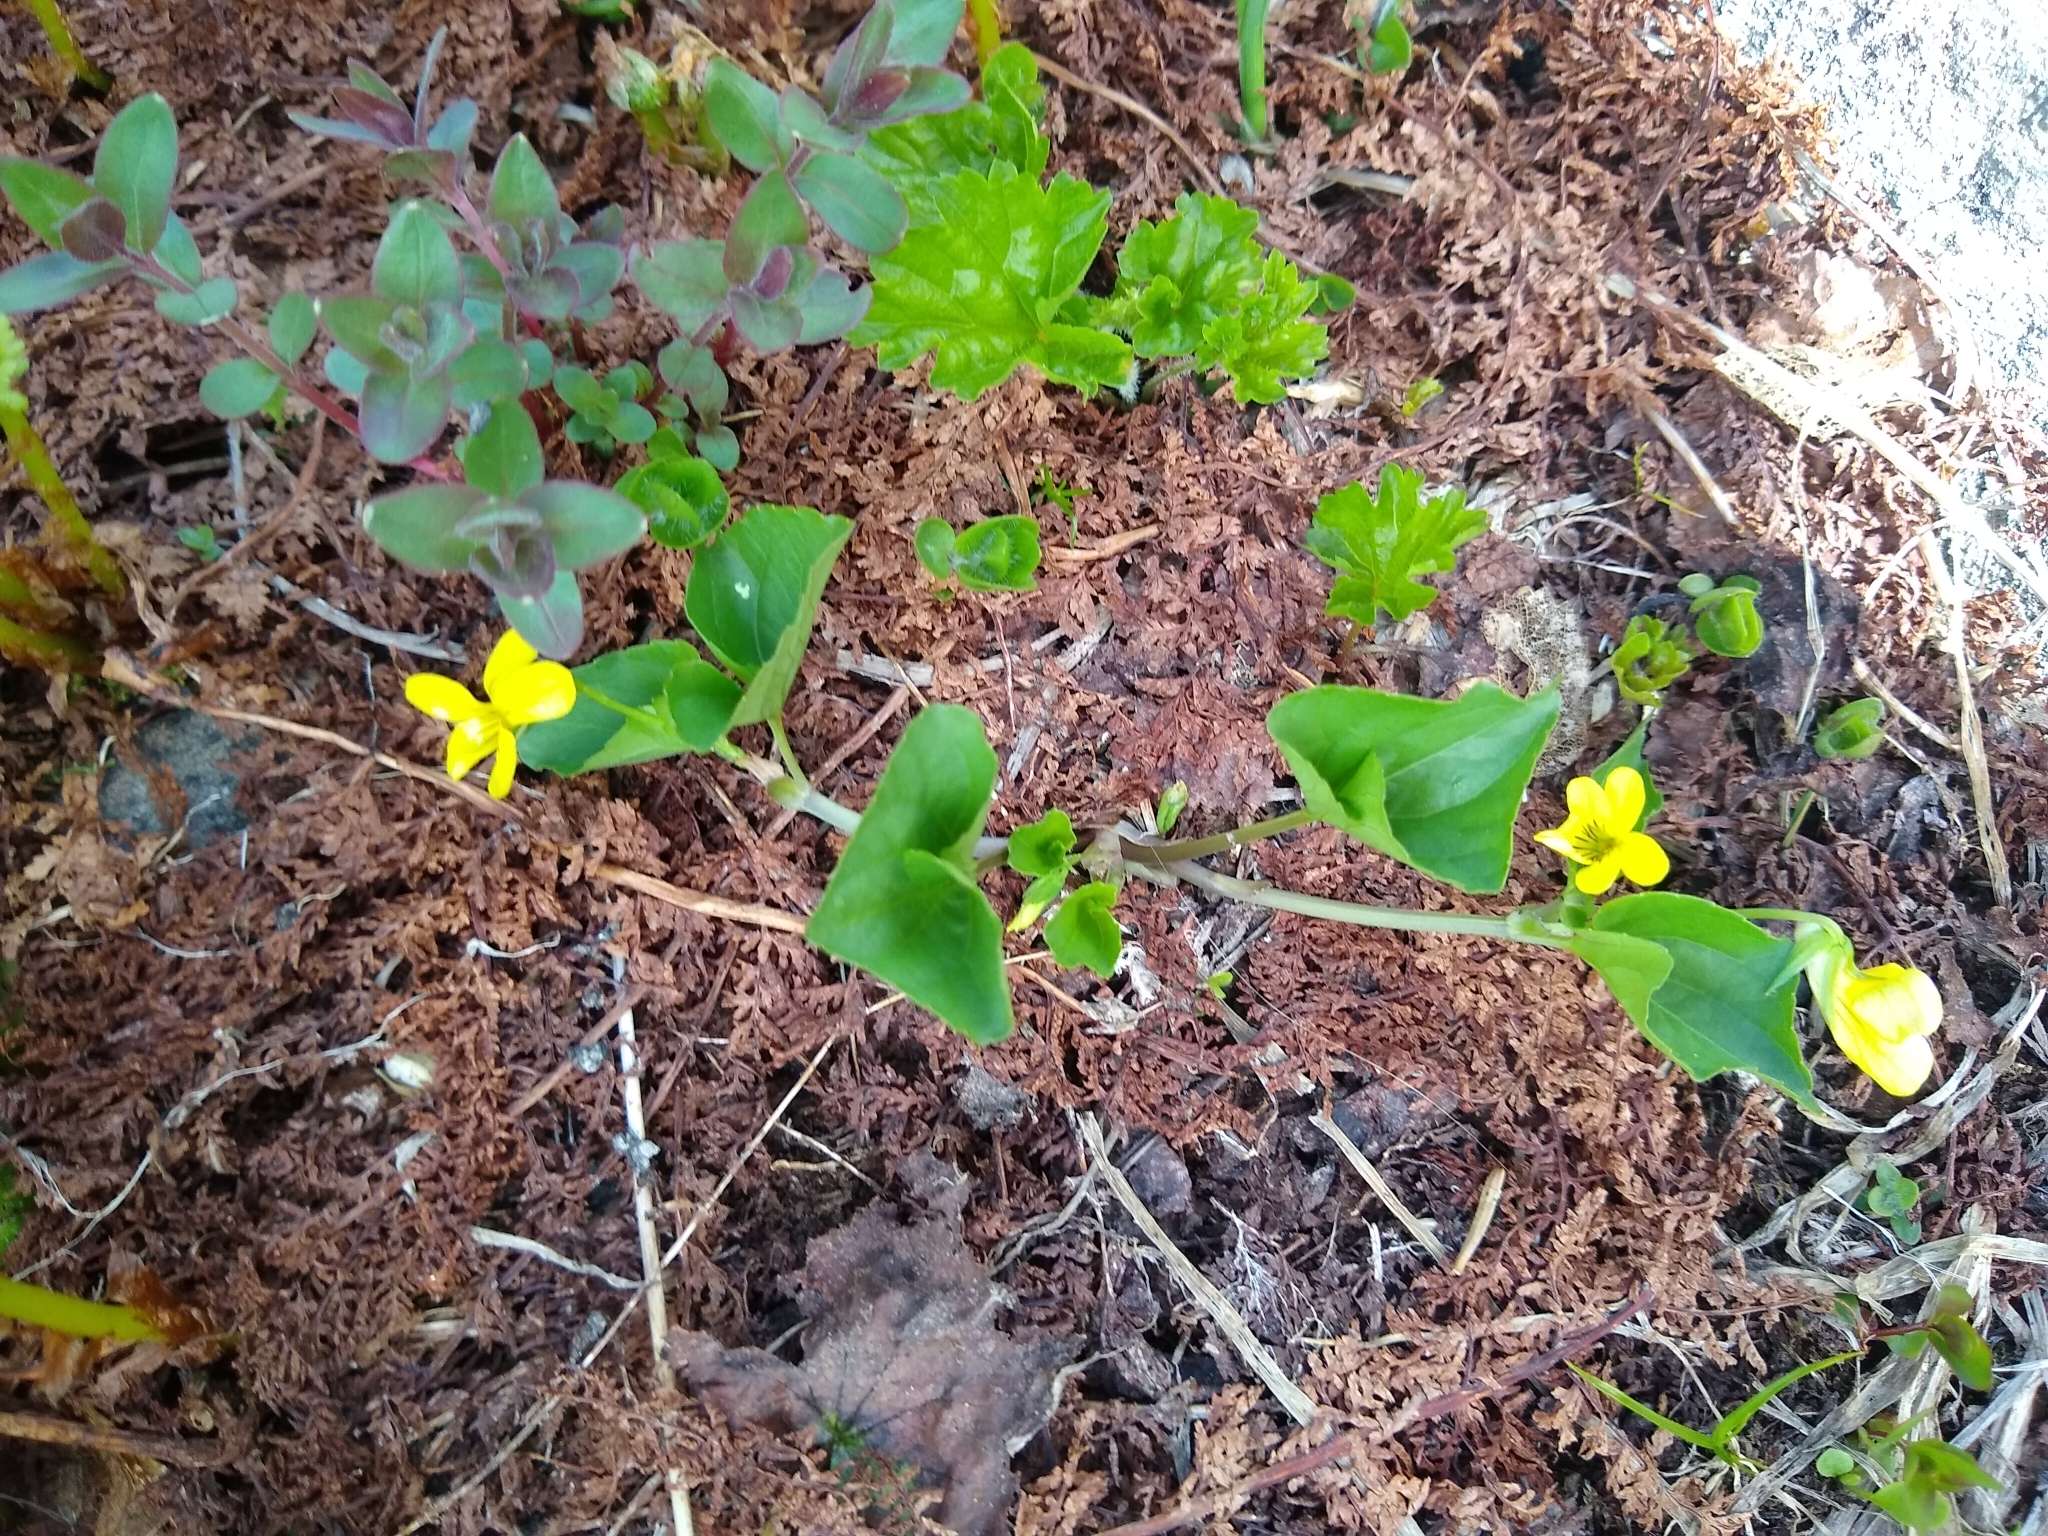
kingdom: Plantae
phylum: Tracheophyta
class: Magnoliopsida
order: Malpighiales
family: Violaceae
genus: Viola
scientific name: Viola glabella
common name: Stream violet
